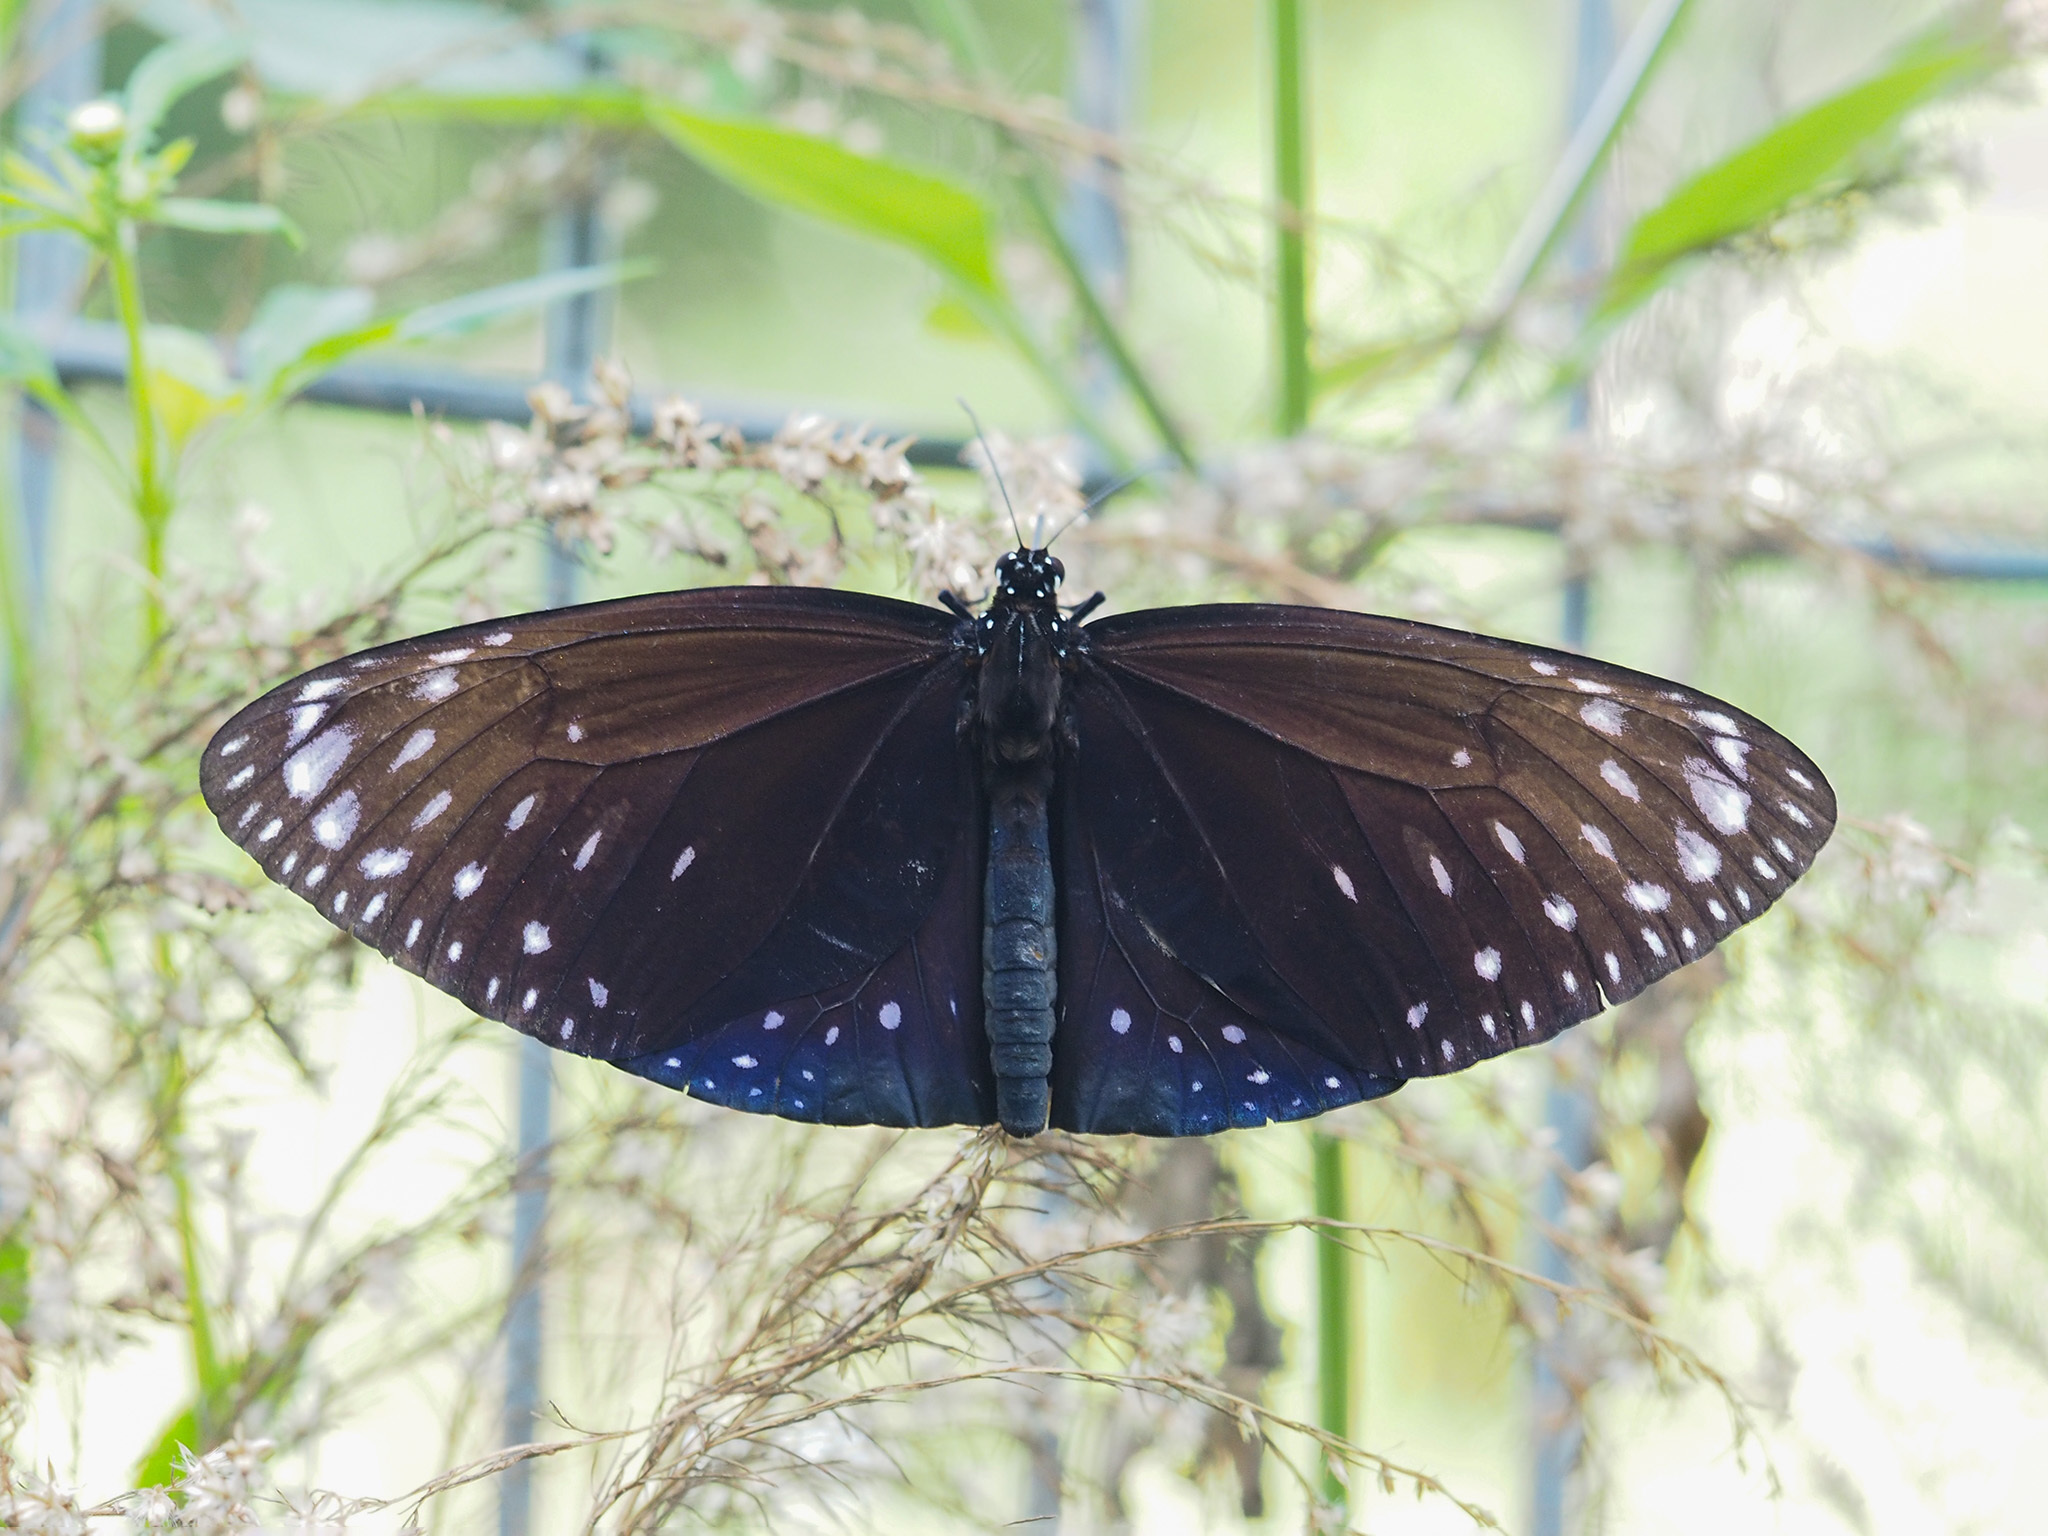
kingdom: Animalia
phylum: Arthropoda
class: Insecta
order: Lepidoptera
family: Nymphalidae
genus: Euploea
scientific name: Euploea phaenareta
